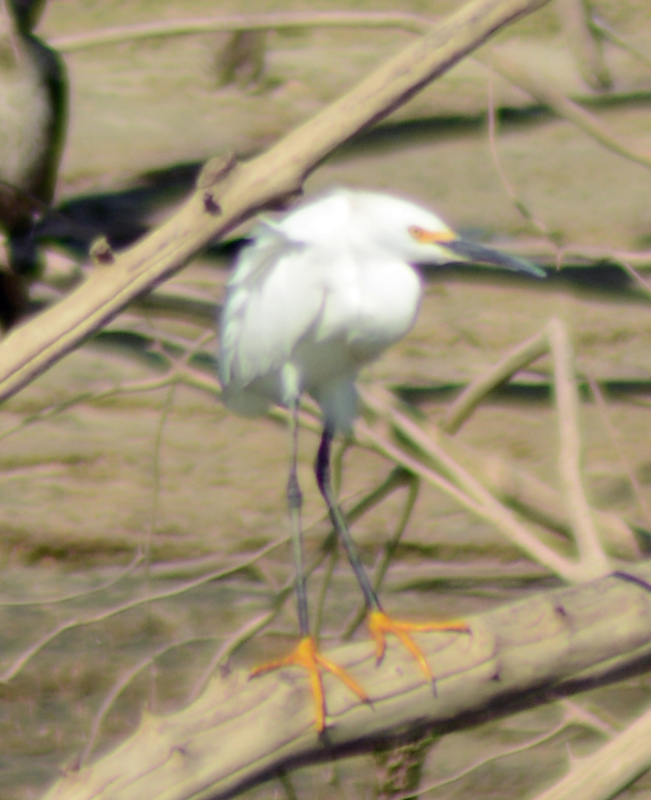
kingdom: Animalia
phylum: Chordata
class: Aves
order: Pelecaniformes
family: Ardeidae
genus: Egretta
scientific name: Egretta thula
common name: Snowy egret
